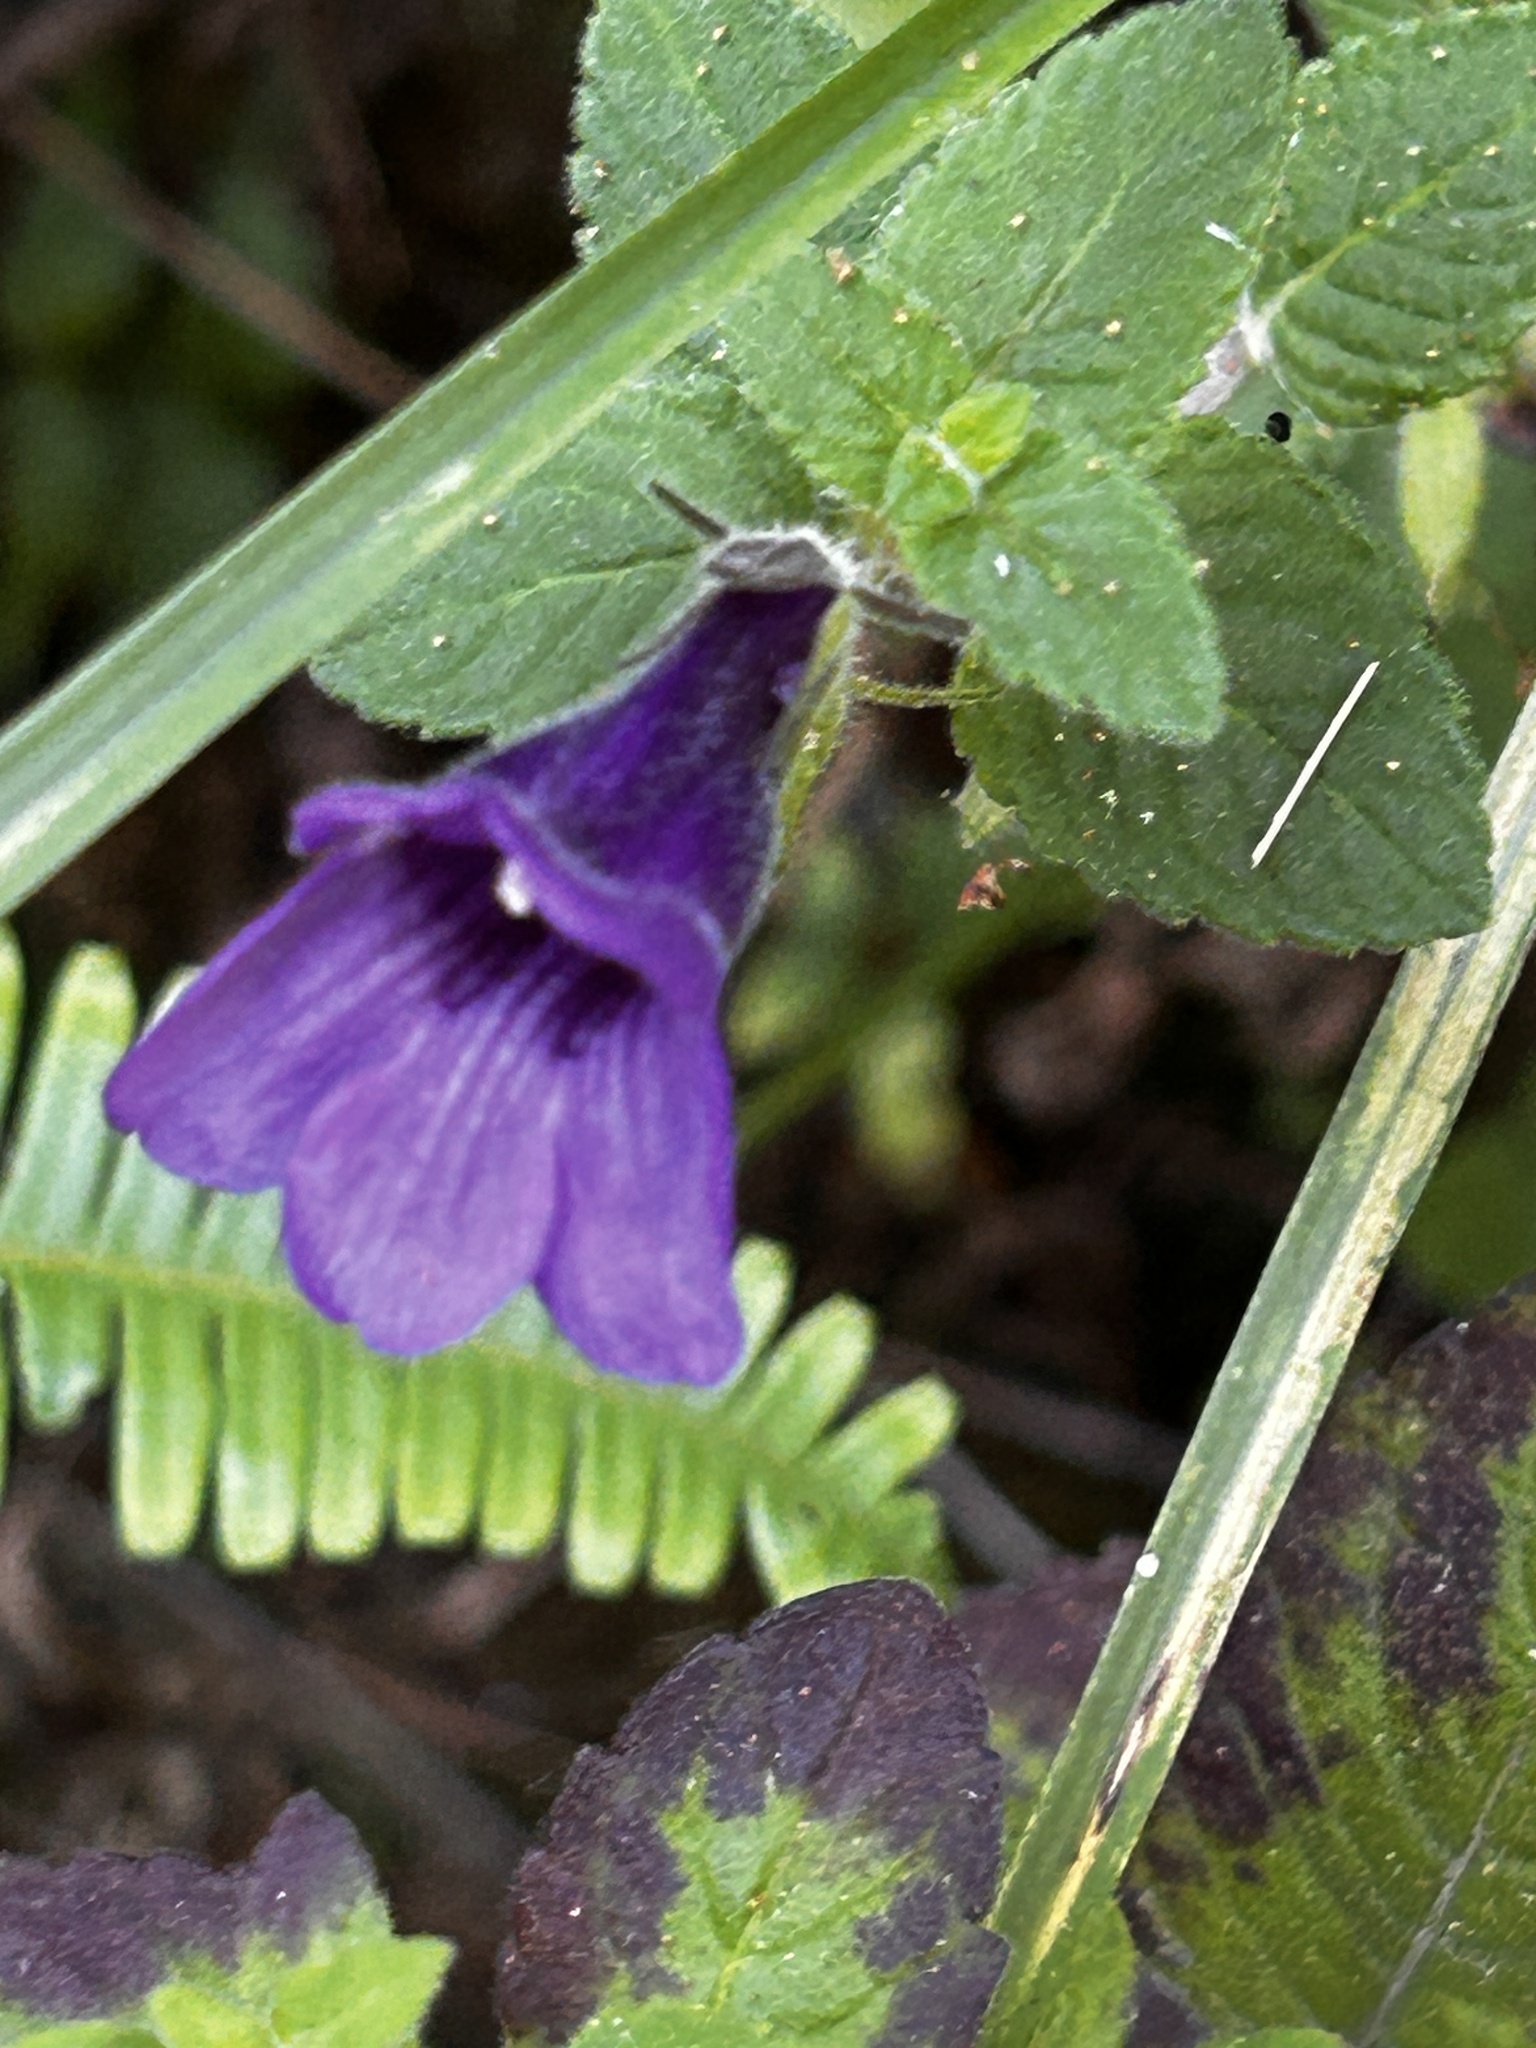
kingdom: Plantae
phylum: Tracheophyta
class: Magnoliopsida
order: Lamiales
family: Plantaginaceae
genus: Adenosma
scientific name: Adenosma glutinosa
